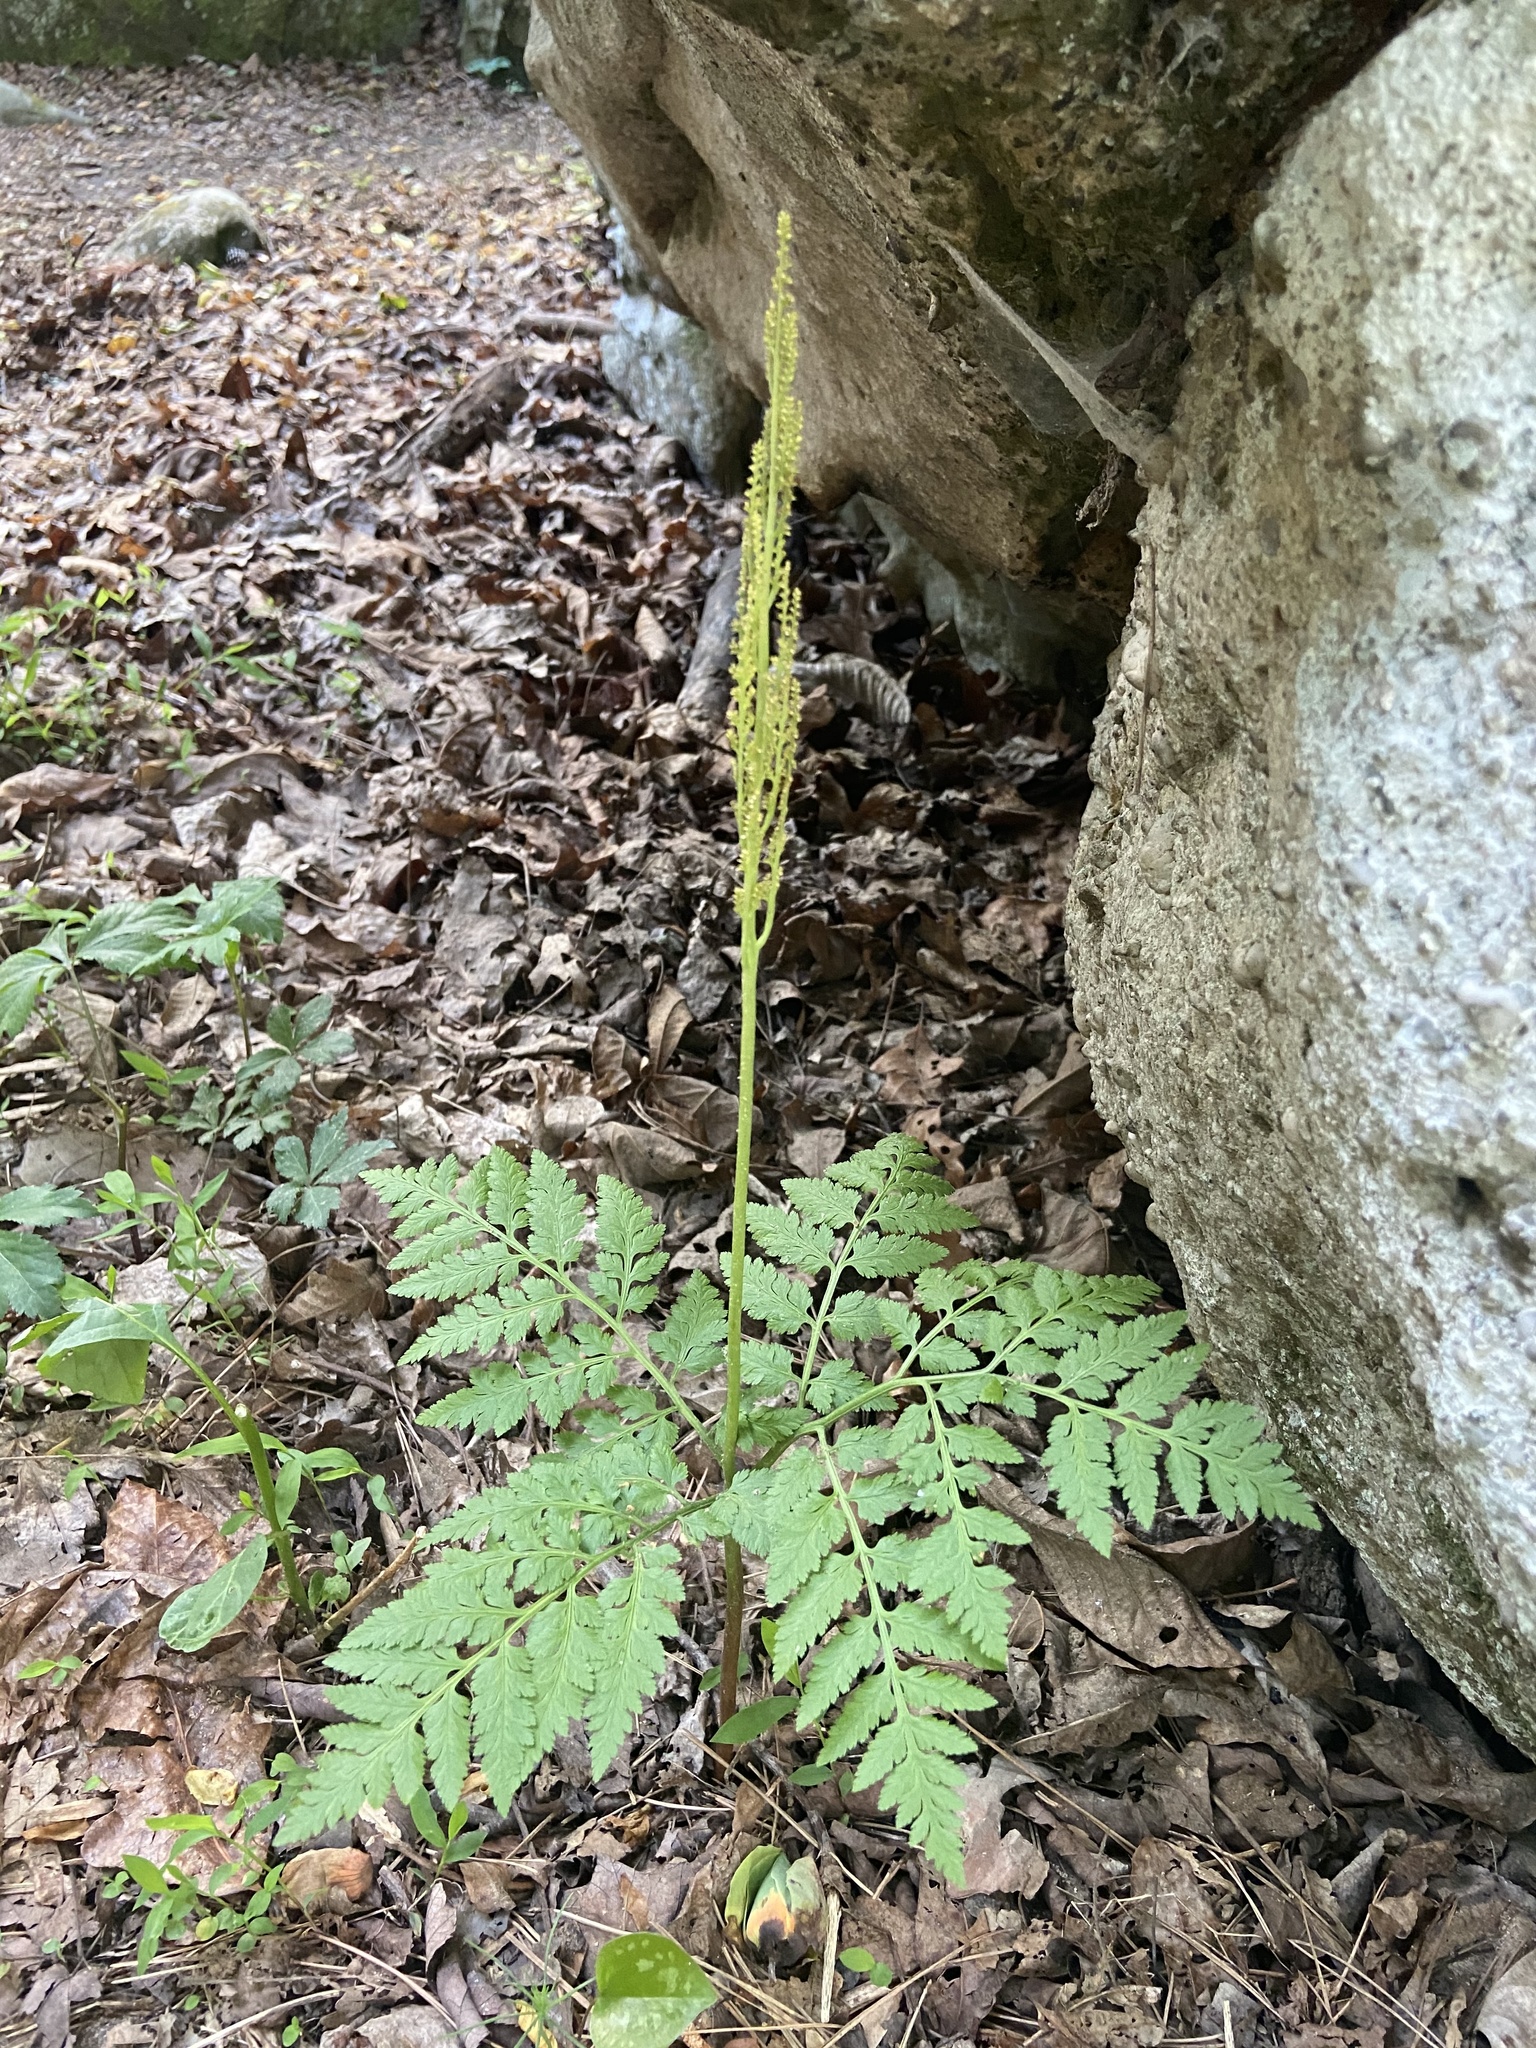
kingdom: Plantae
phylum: Tracheophyta
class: Polypodiopsida
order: Ophioglossales
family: Ophioglossaceae
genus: Botrypus
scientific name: Botrypus virginianus
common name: Common grapefern
